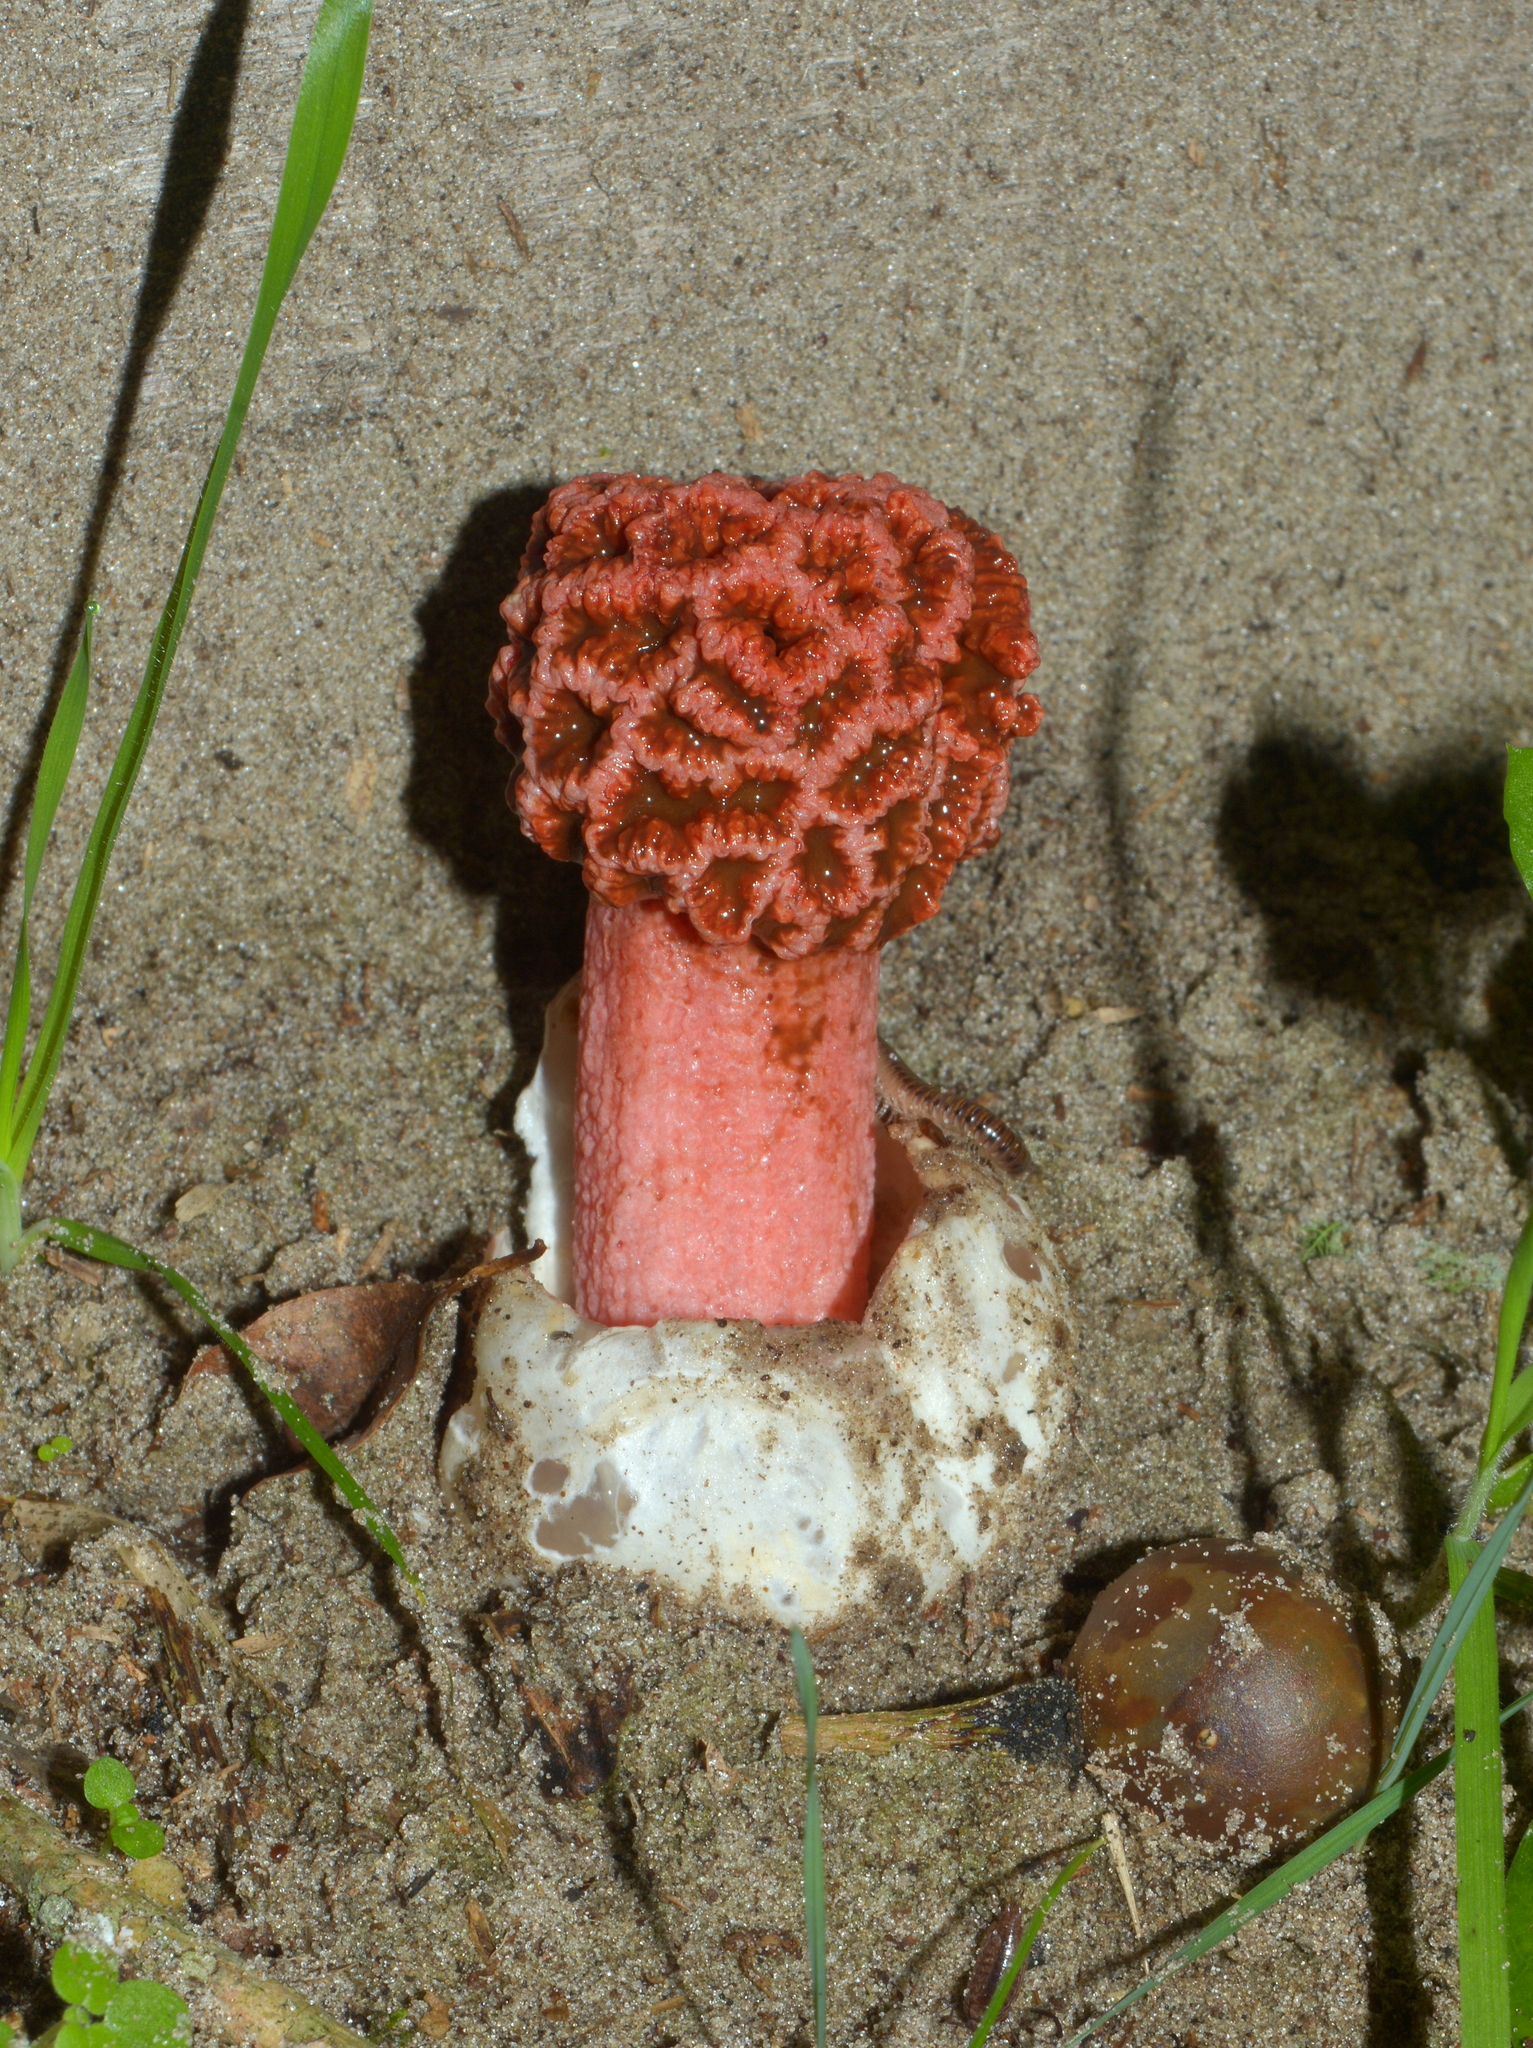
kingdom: Fungi
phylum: Basidiomycota
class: Agaricomycetes
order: Phallales
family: Phallaceae
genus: Lysurus
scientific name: Lysurus periphragmoides
